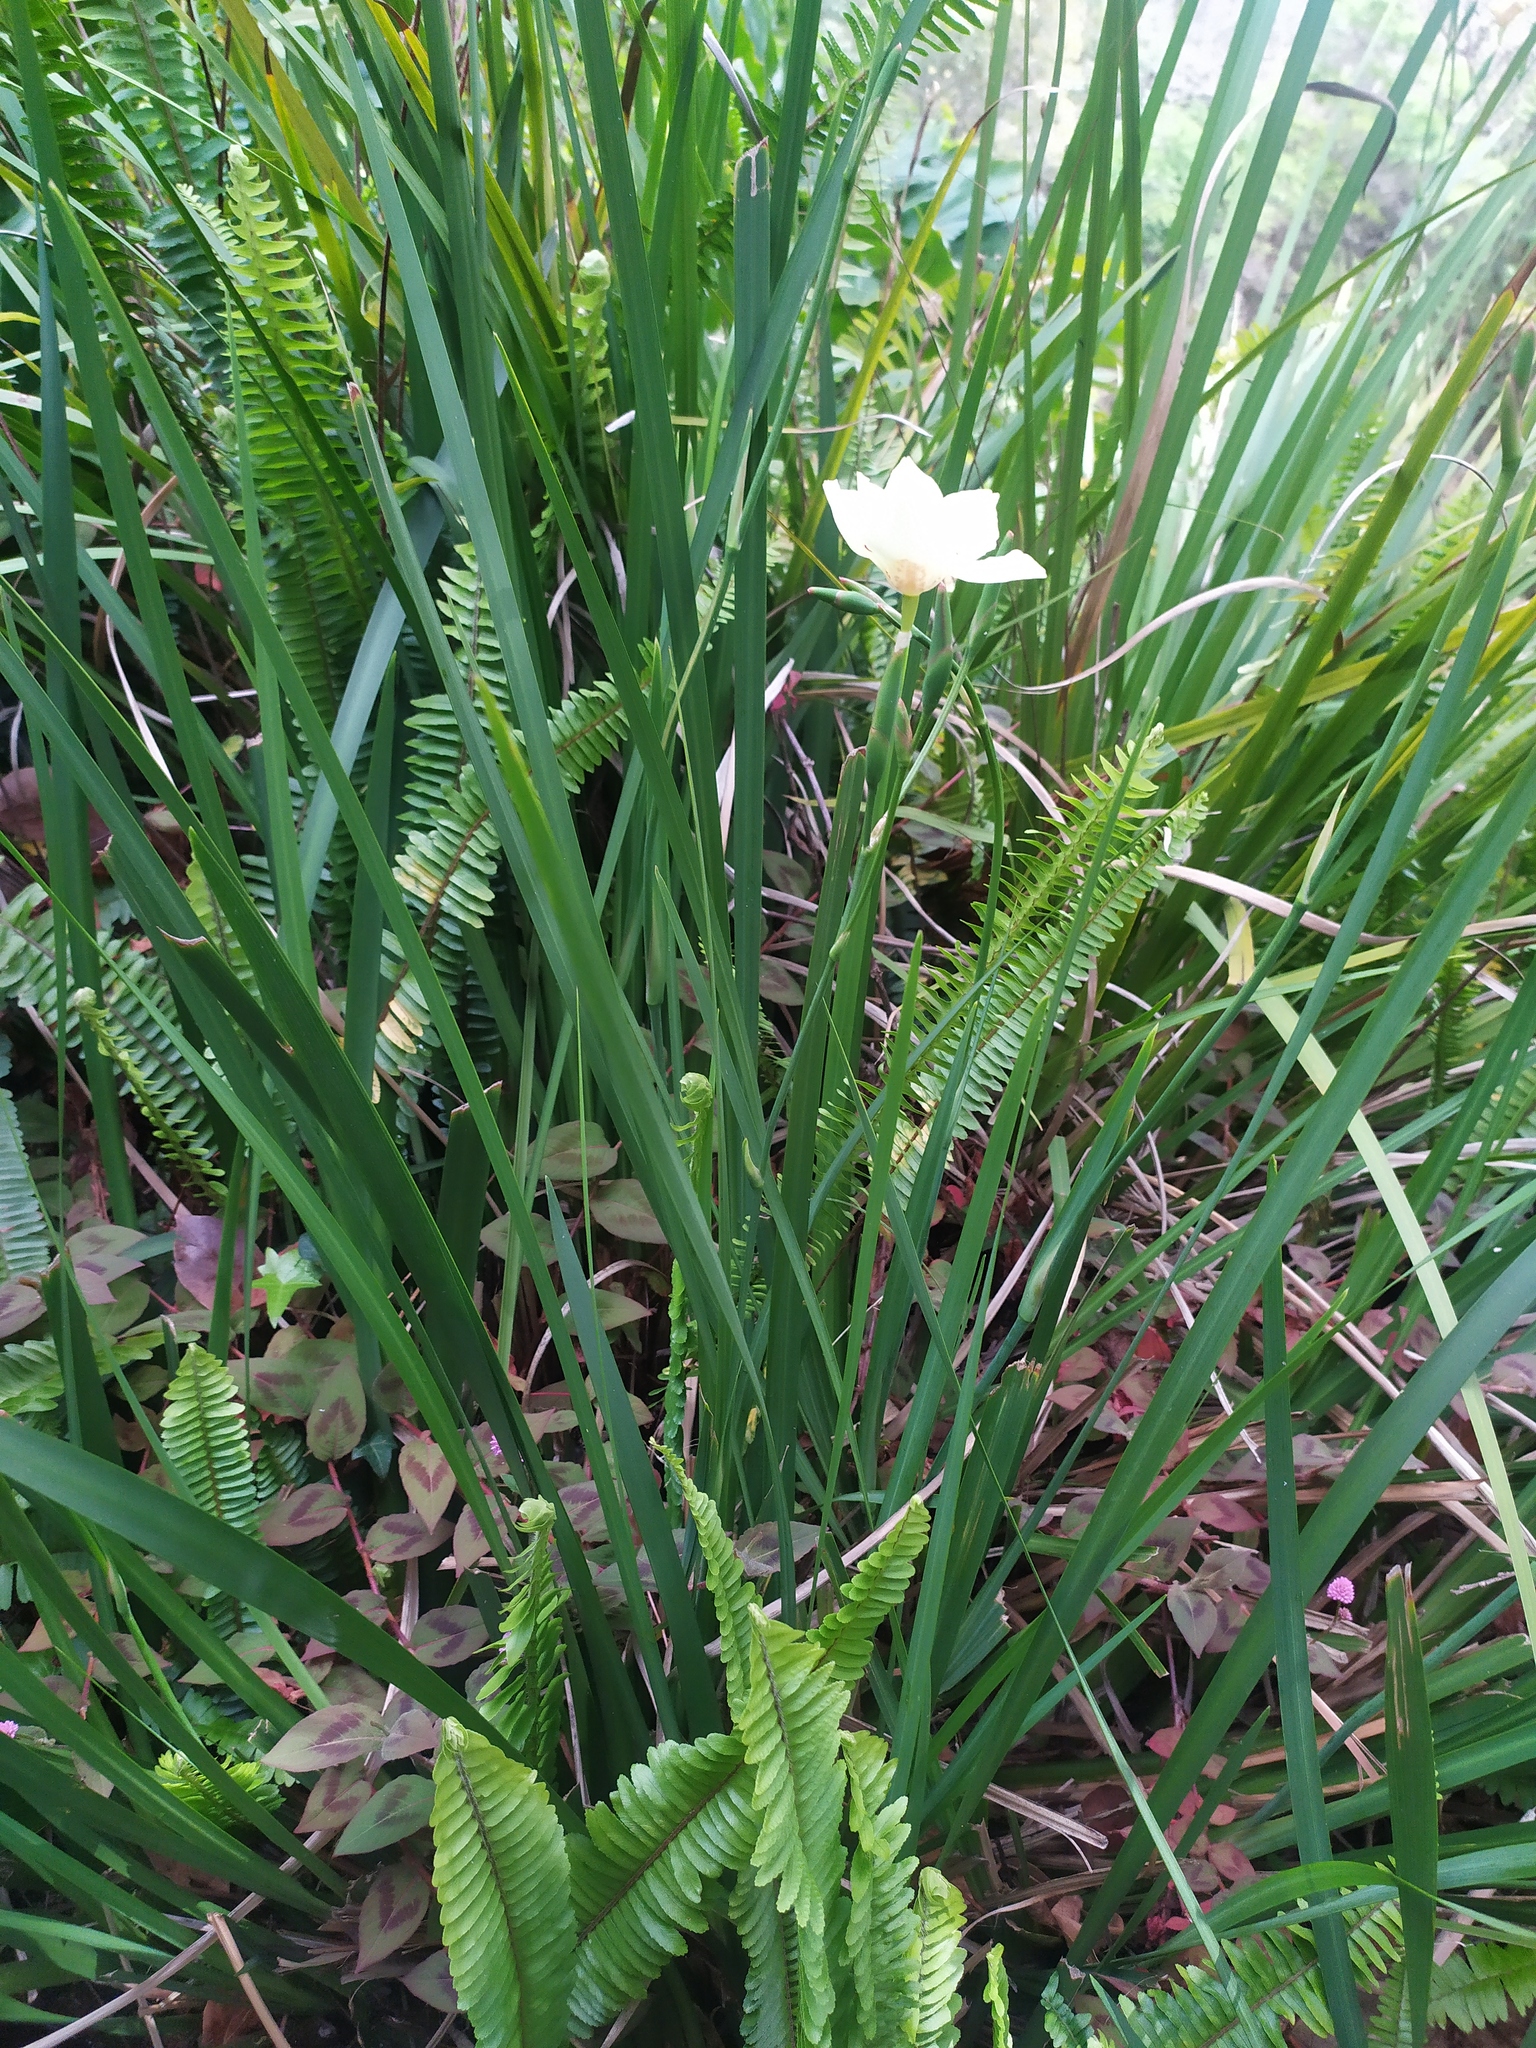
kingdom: Plantae
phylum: Tracheophyta
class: Liliopsida
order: Asparagales
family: Iridaceae
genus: Dietes
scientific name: Dietes bicolor
